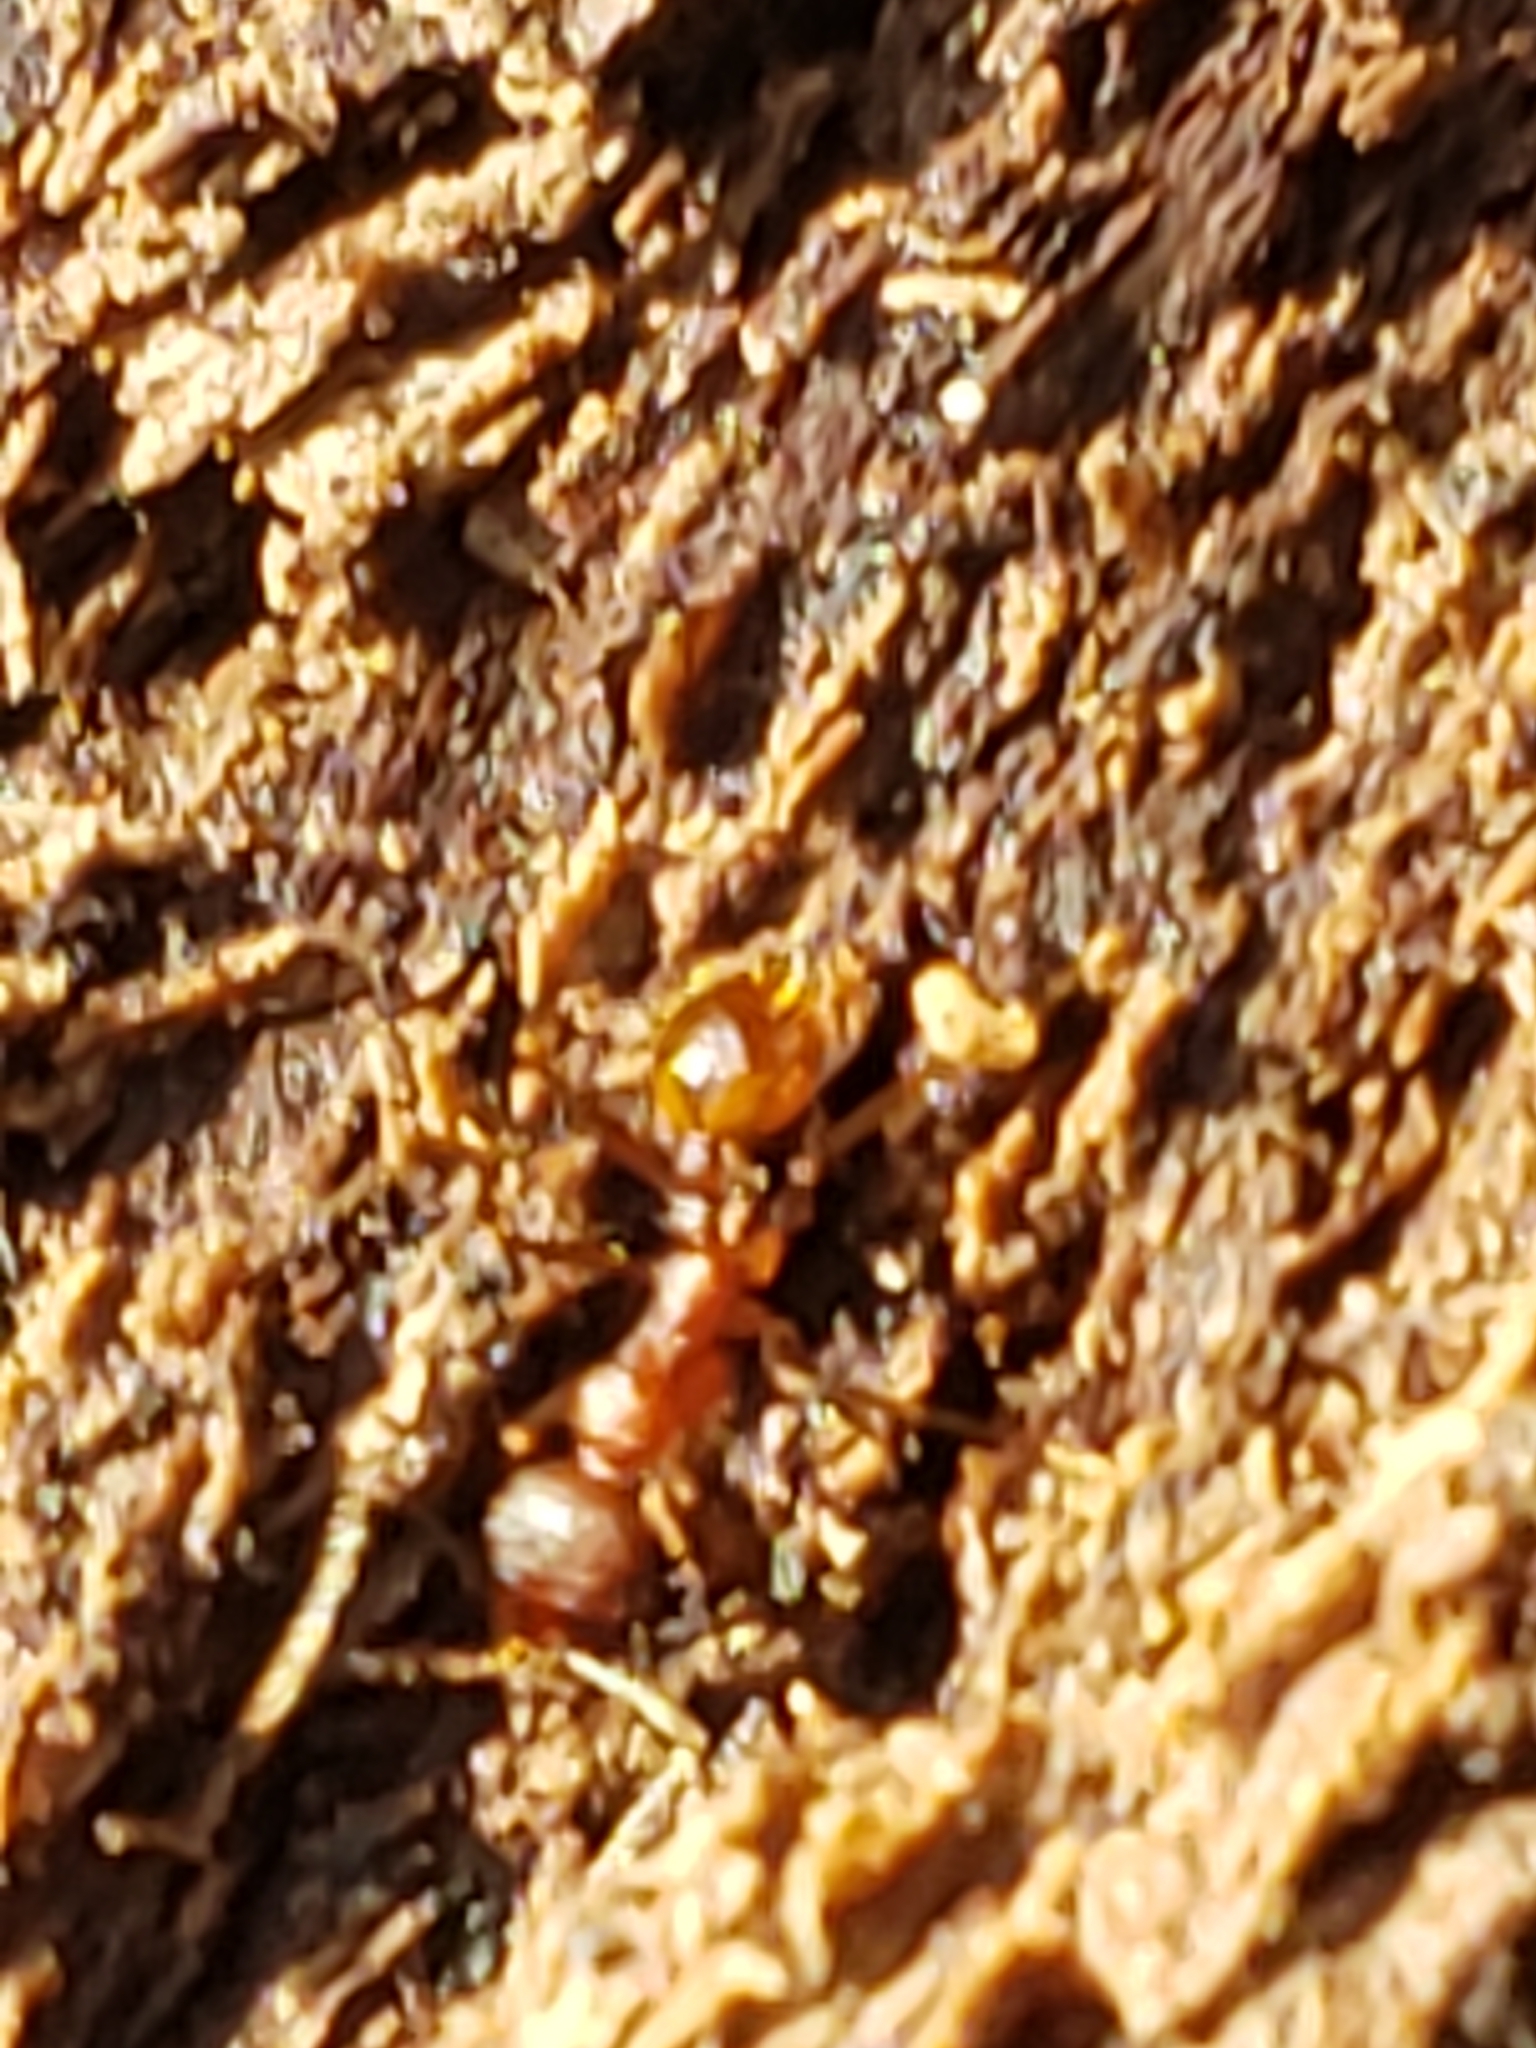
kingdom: Animalia
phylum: Arthropoda
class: Insecta
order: Hymenoptera
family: Formicidae
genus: Aphaenogaster
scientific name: Aphaenogaster fulva
